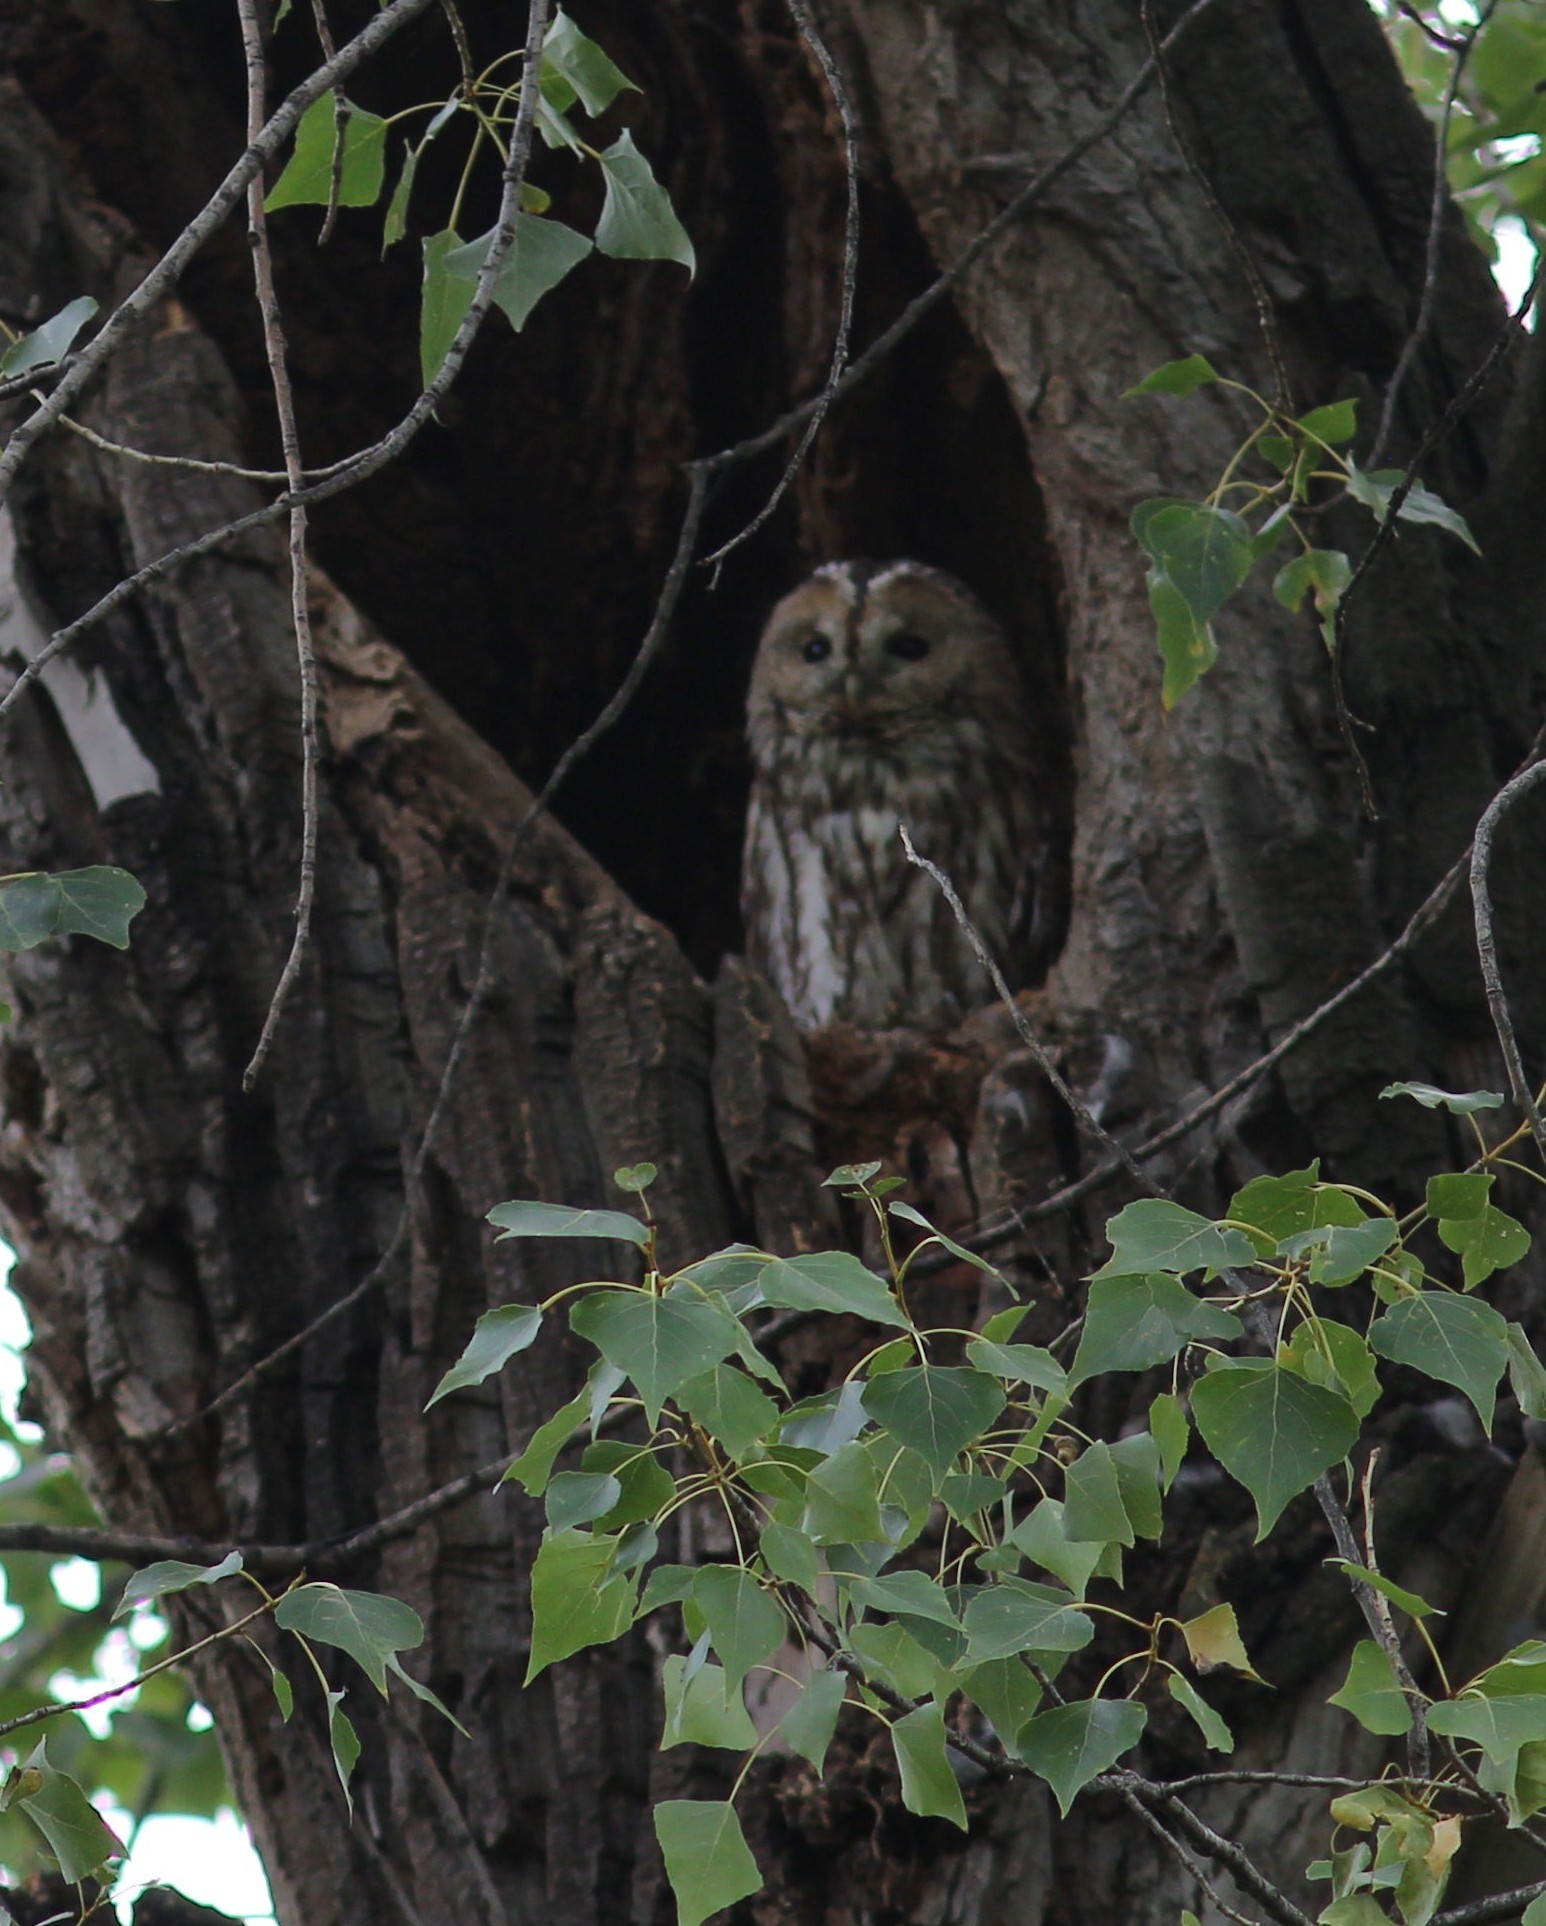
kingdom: Animalia
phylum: Chordata
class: Aves
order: Strigiformes
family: Strigidae
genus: Strix
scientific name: Strix aluco
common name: Tawny owl
